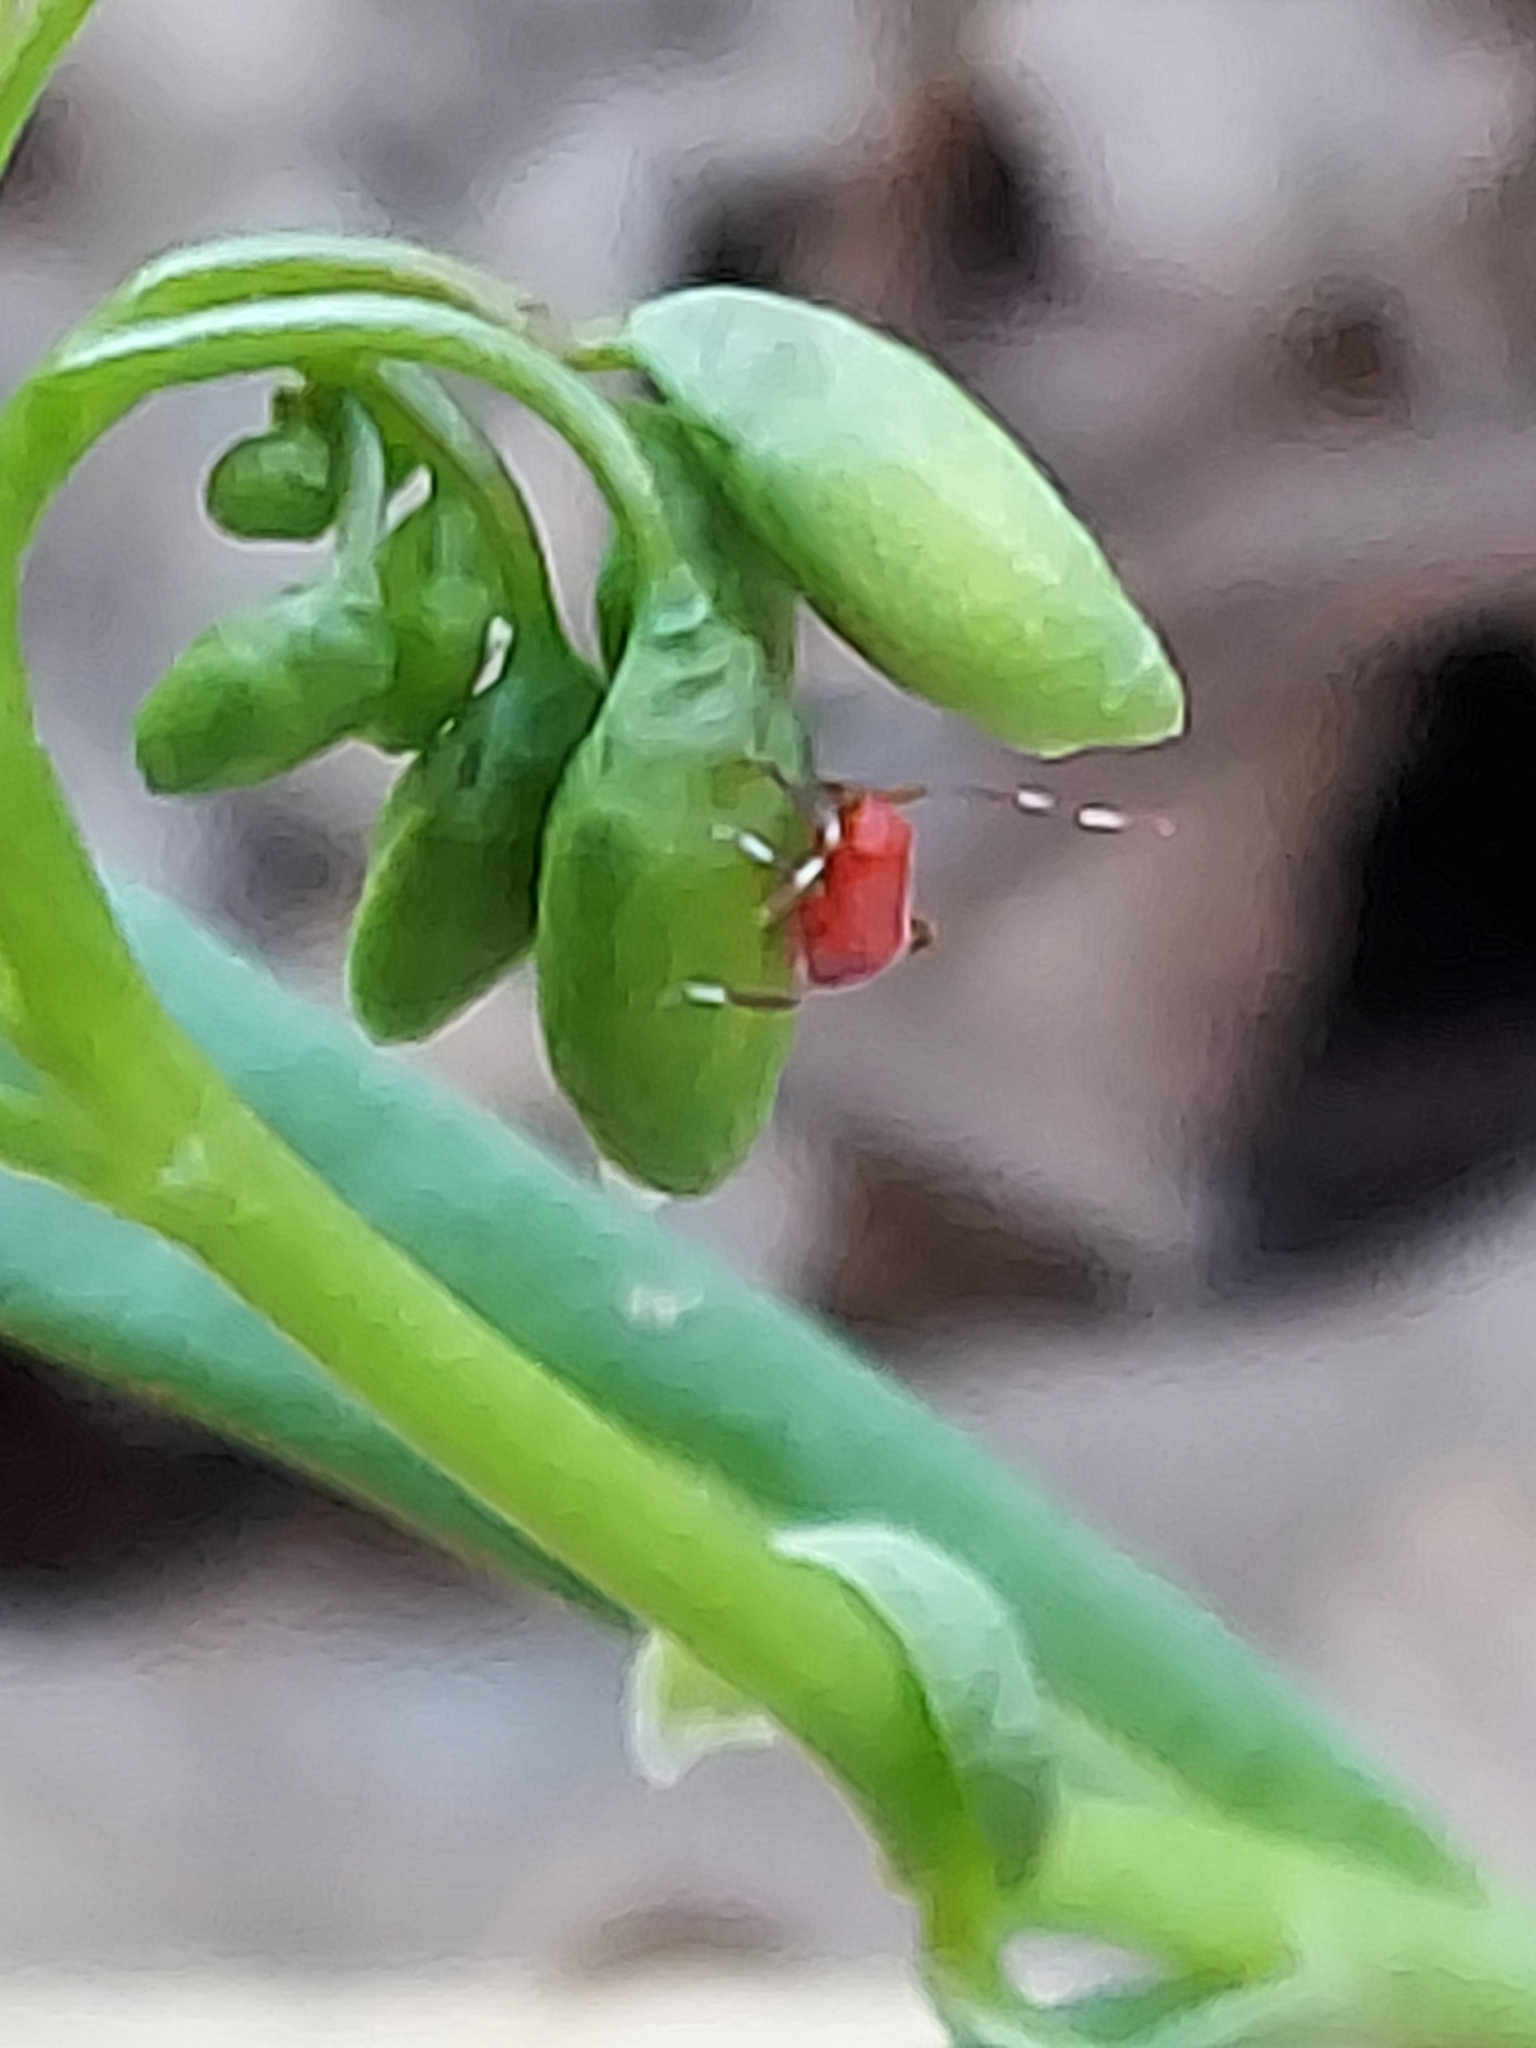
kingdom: Animalia
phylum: Arthropoda
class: Insecta
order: Hemiptera
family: Miridae
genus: Coccobaphes
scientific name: Coccobaphes frontifer
